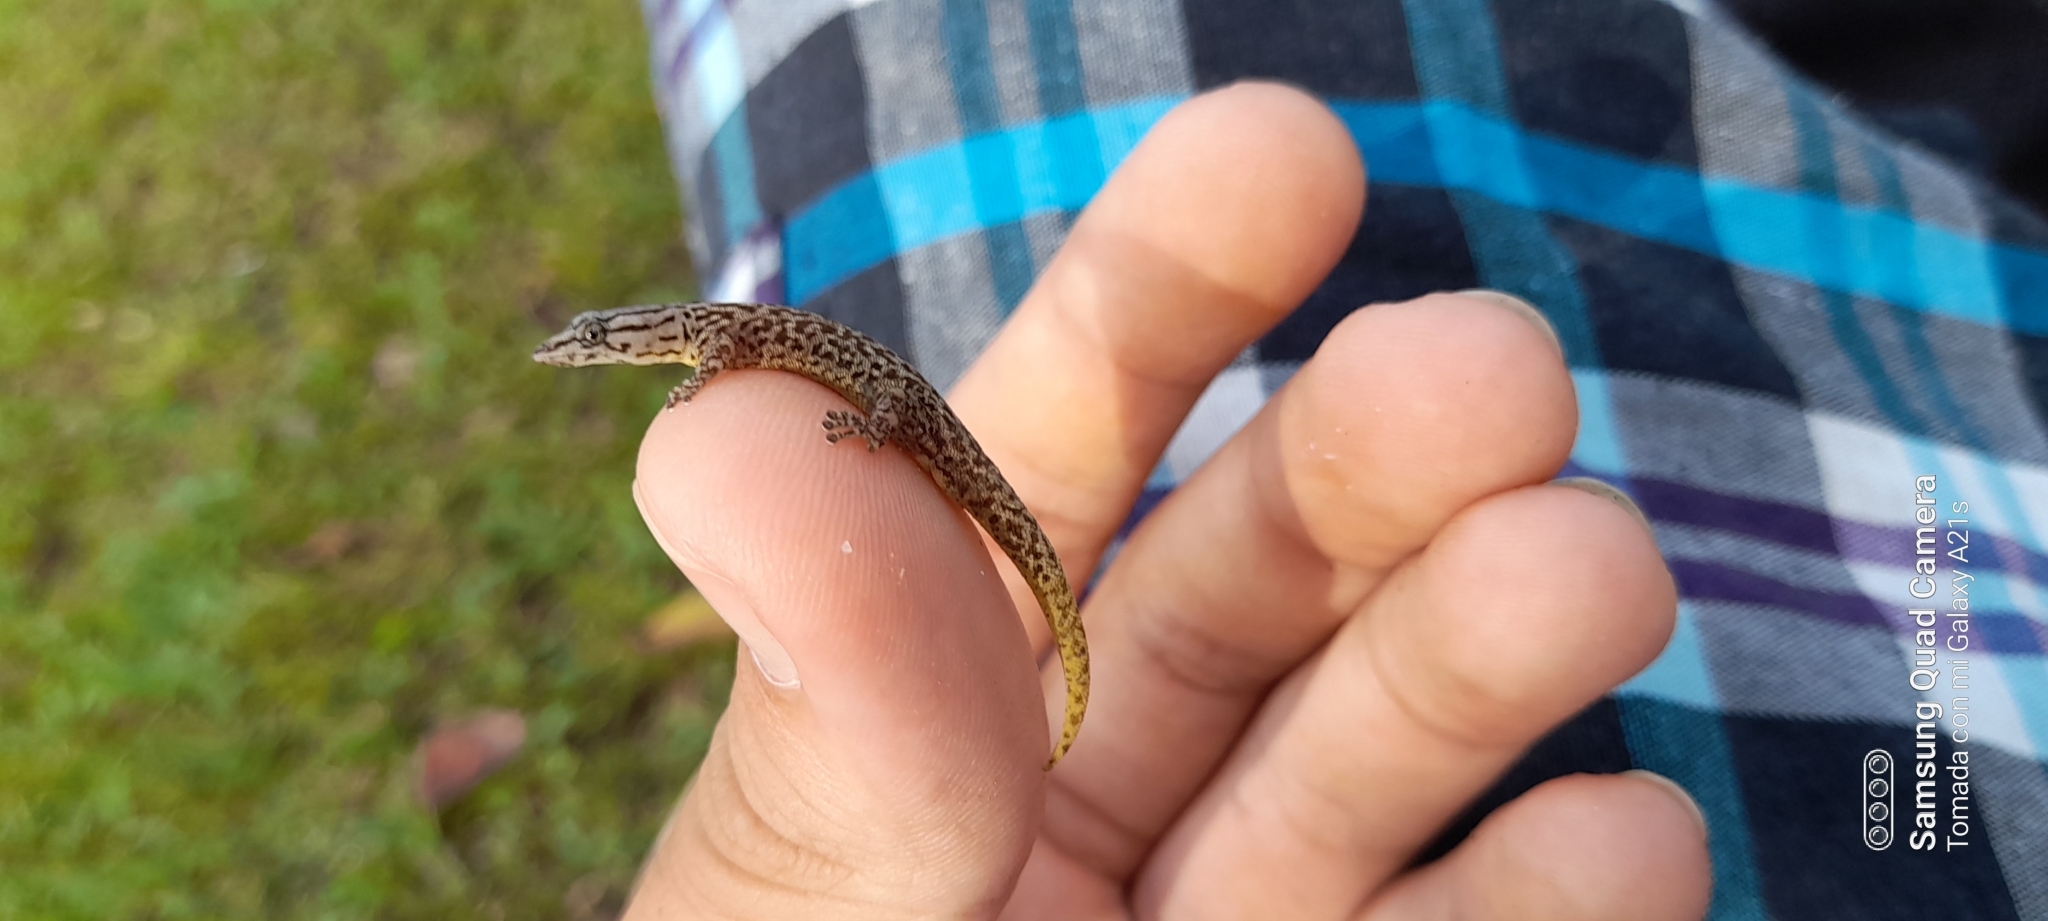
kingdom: Animalia
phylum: Chordata
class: Squamata
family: Sphaerodactylidae
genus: Sphaerodactylus
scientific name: Sphaerodactylus homolepis
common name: Caribbean least gecko
